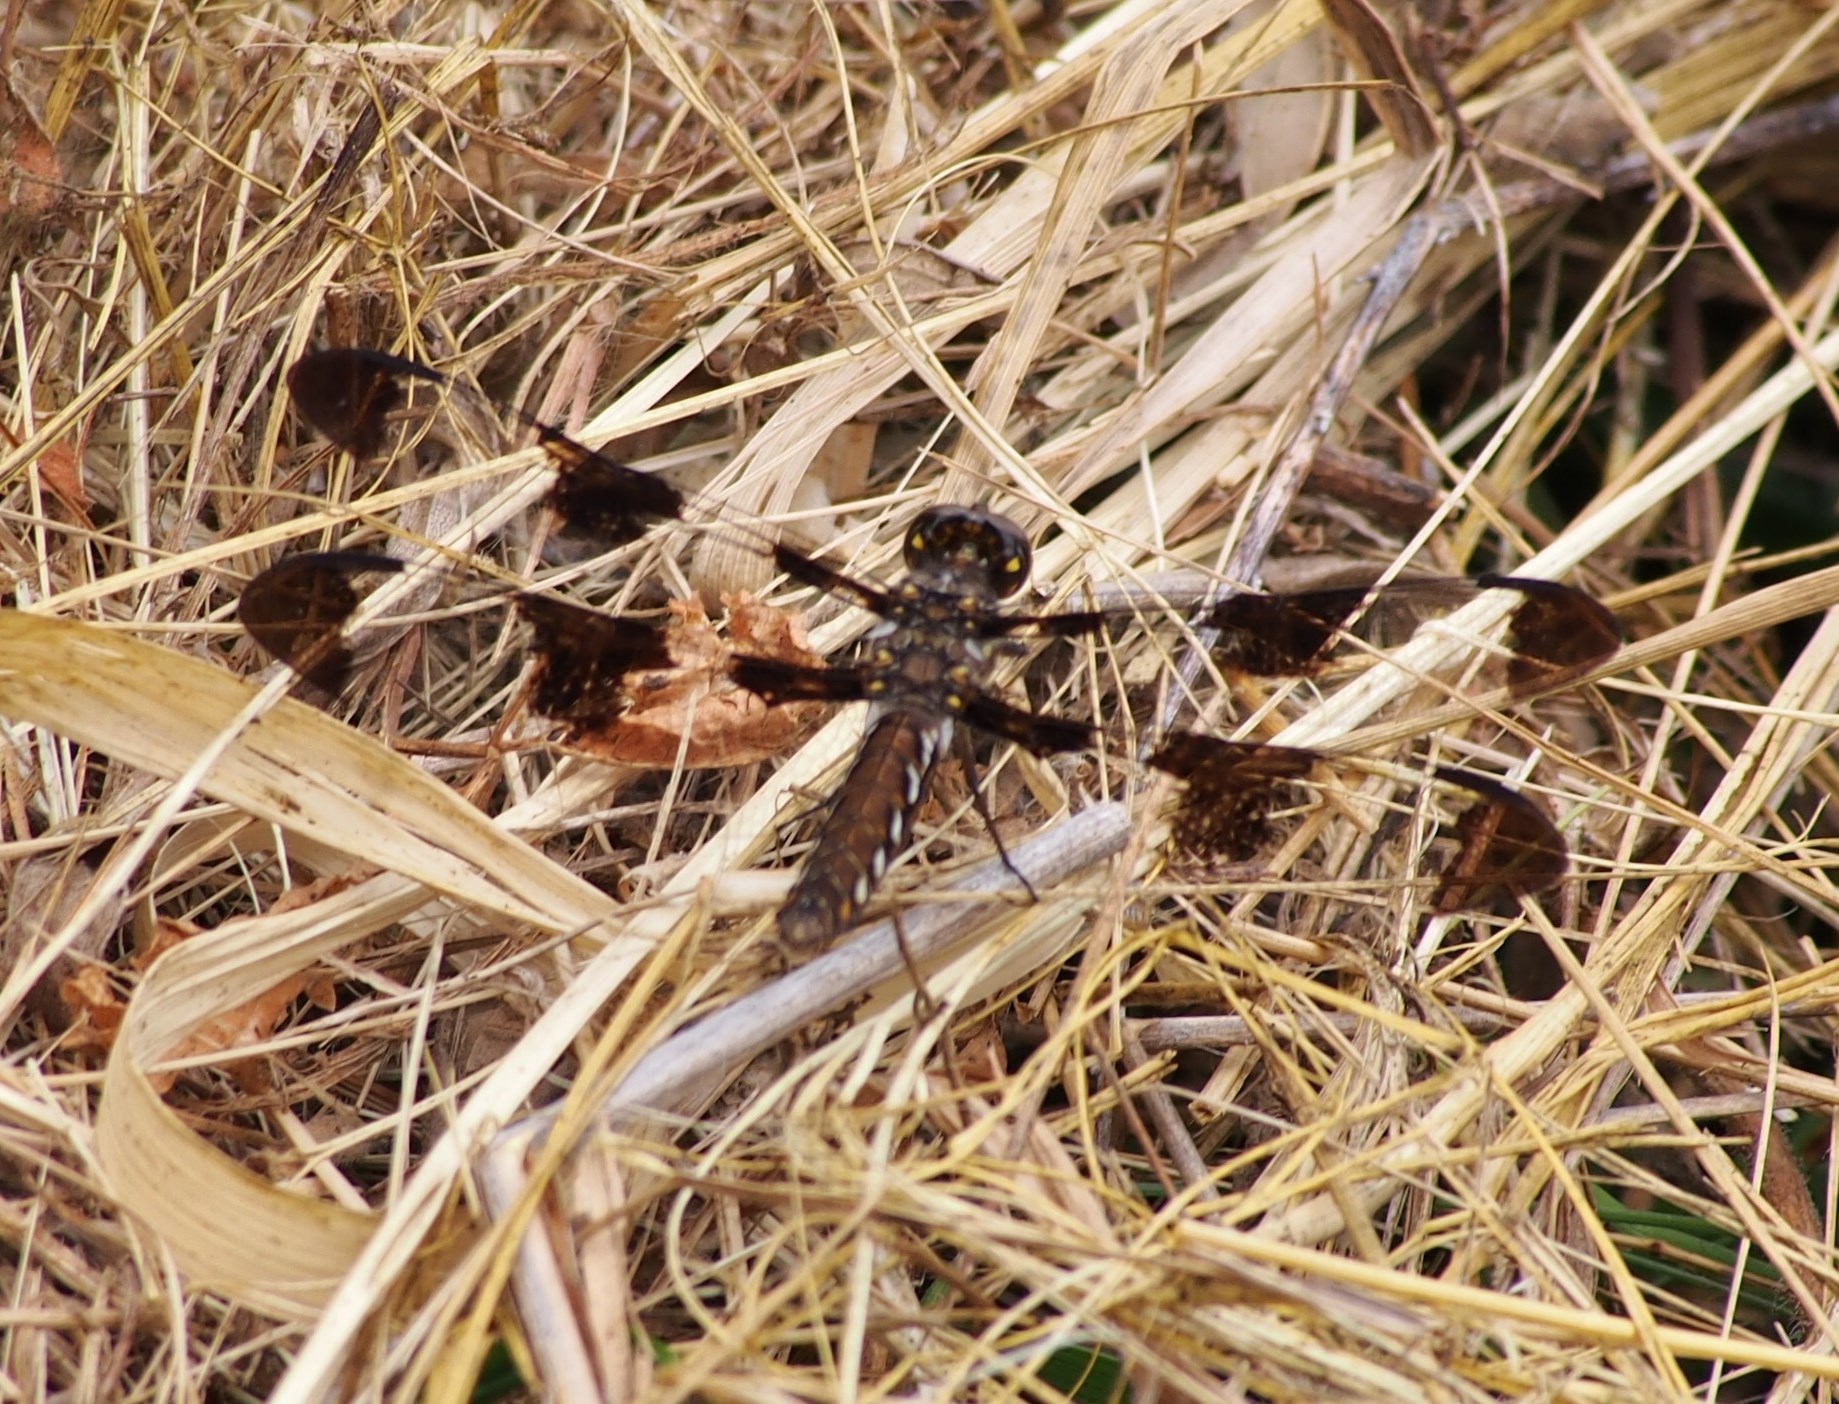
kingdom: Animalia
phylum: Arthropoda
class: Insecta
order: Odonata
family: Libellulidae
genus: Plathemis
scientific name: Plathemis lydia
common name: Common whitetail
